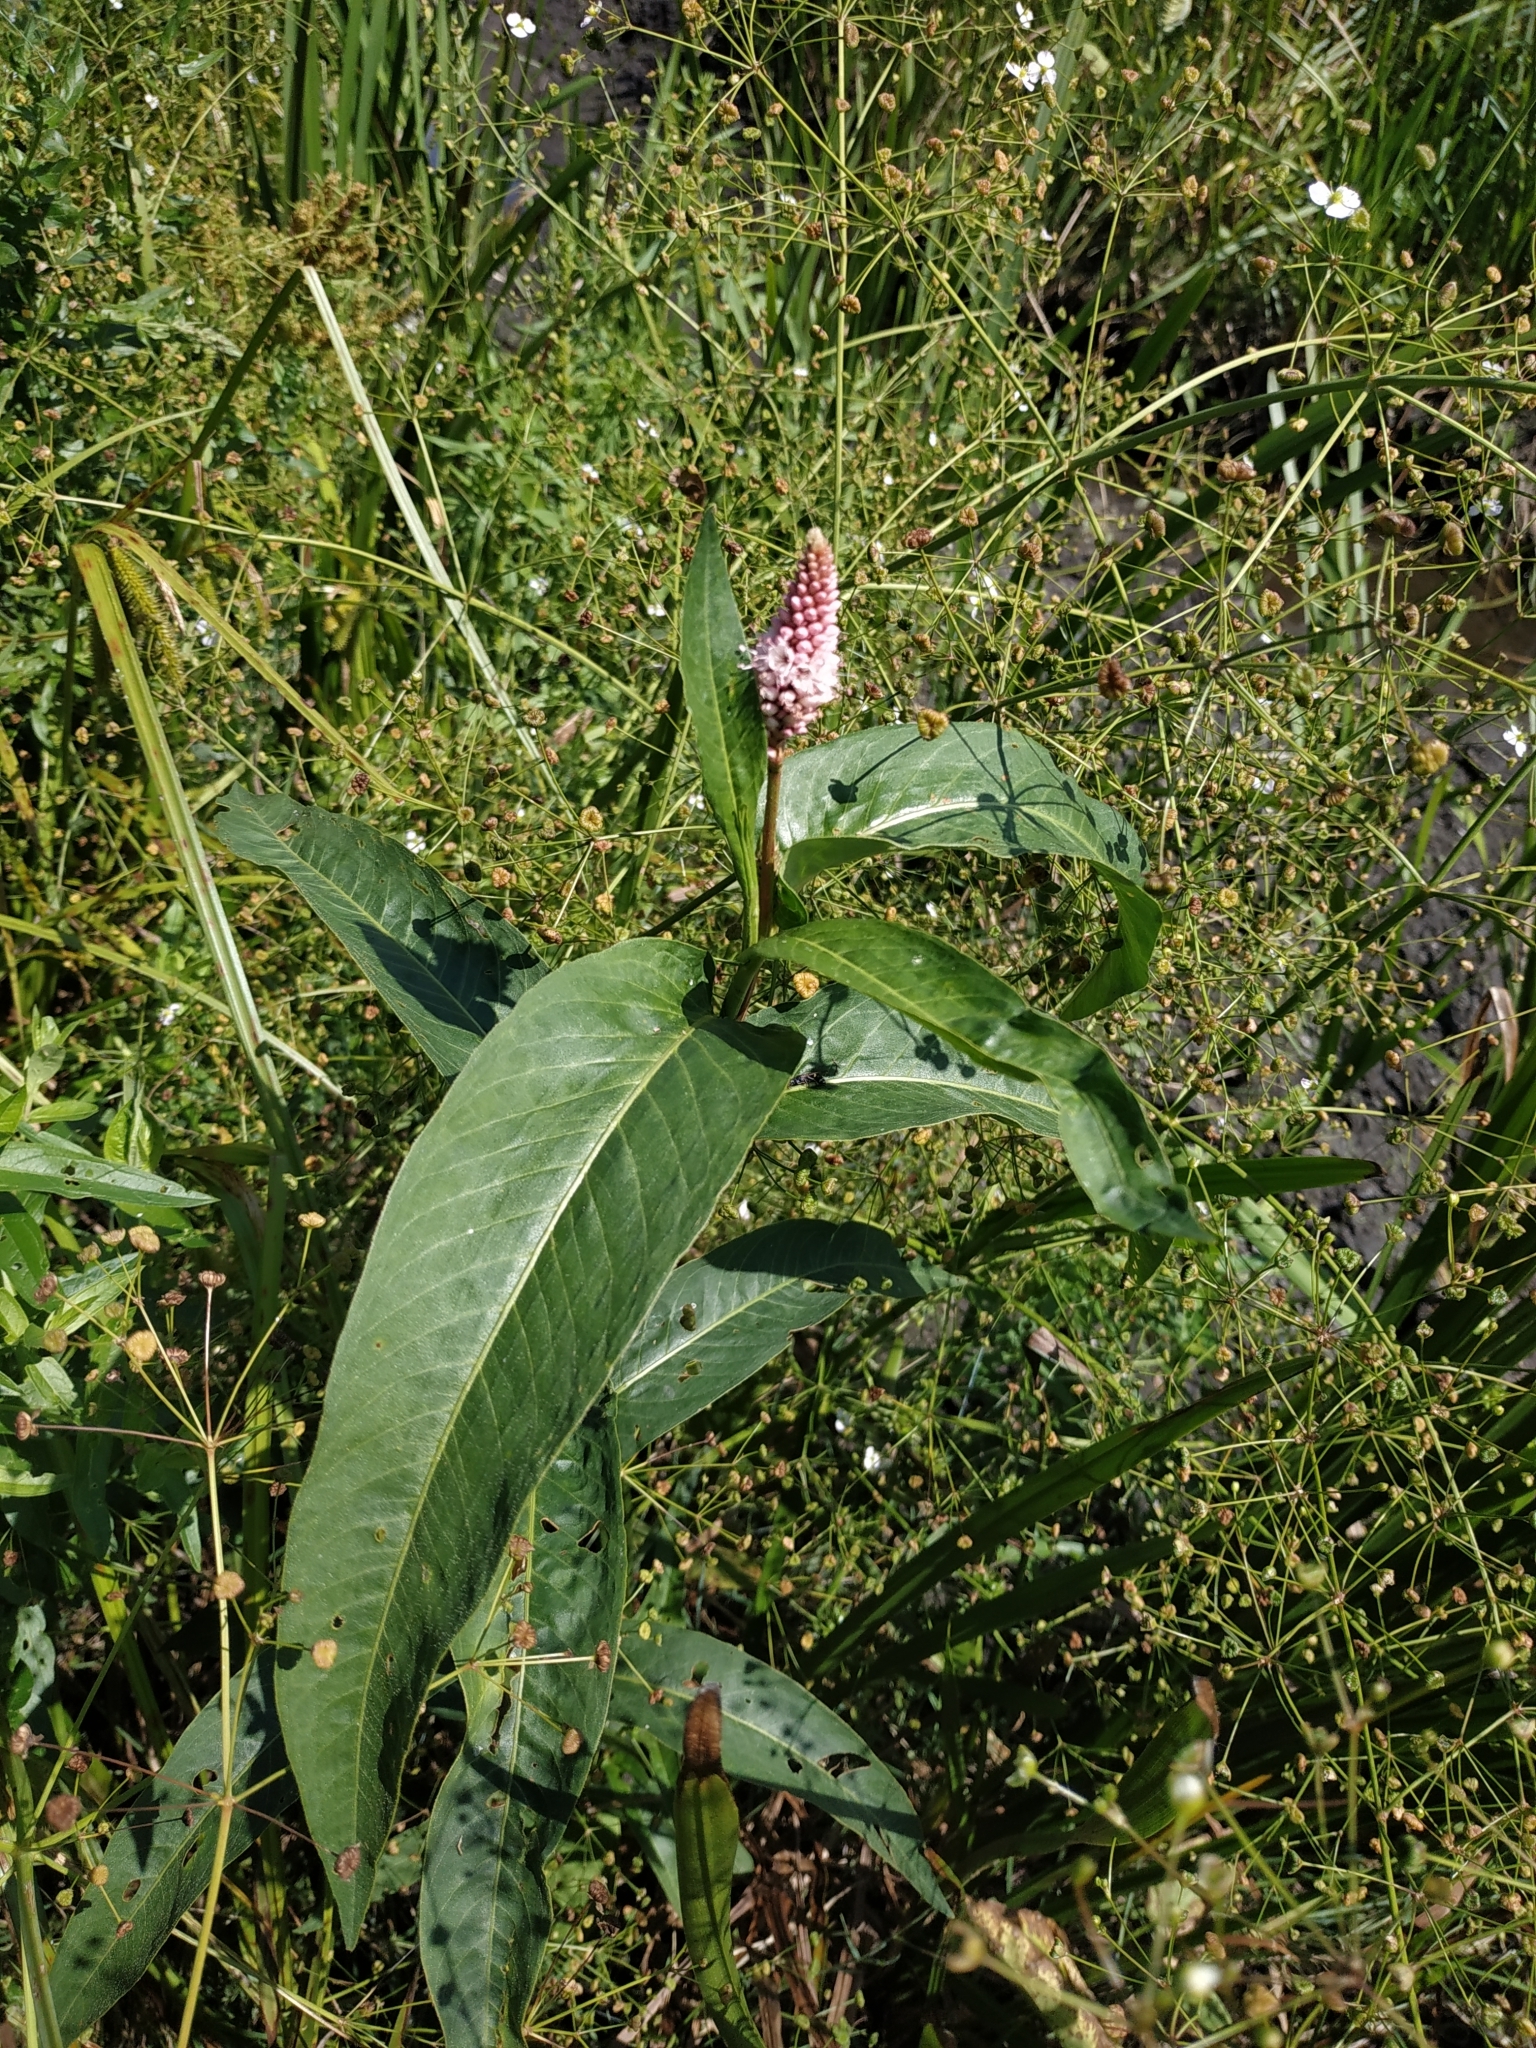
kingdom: Plantae
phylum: Tracheophyta
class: Magnoliopsida
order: Caryophyllales
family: Polygonaceae
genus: Persicaria
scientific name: Persicaria amphibia
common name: Amphibious bistort
